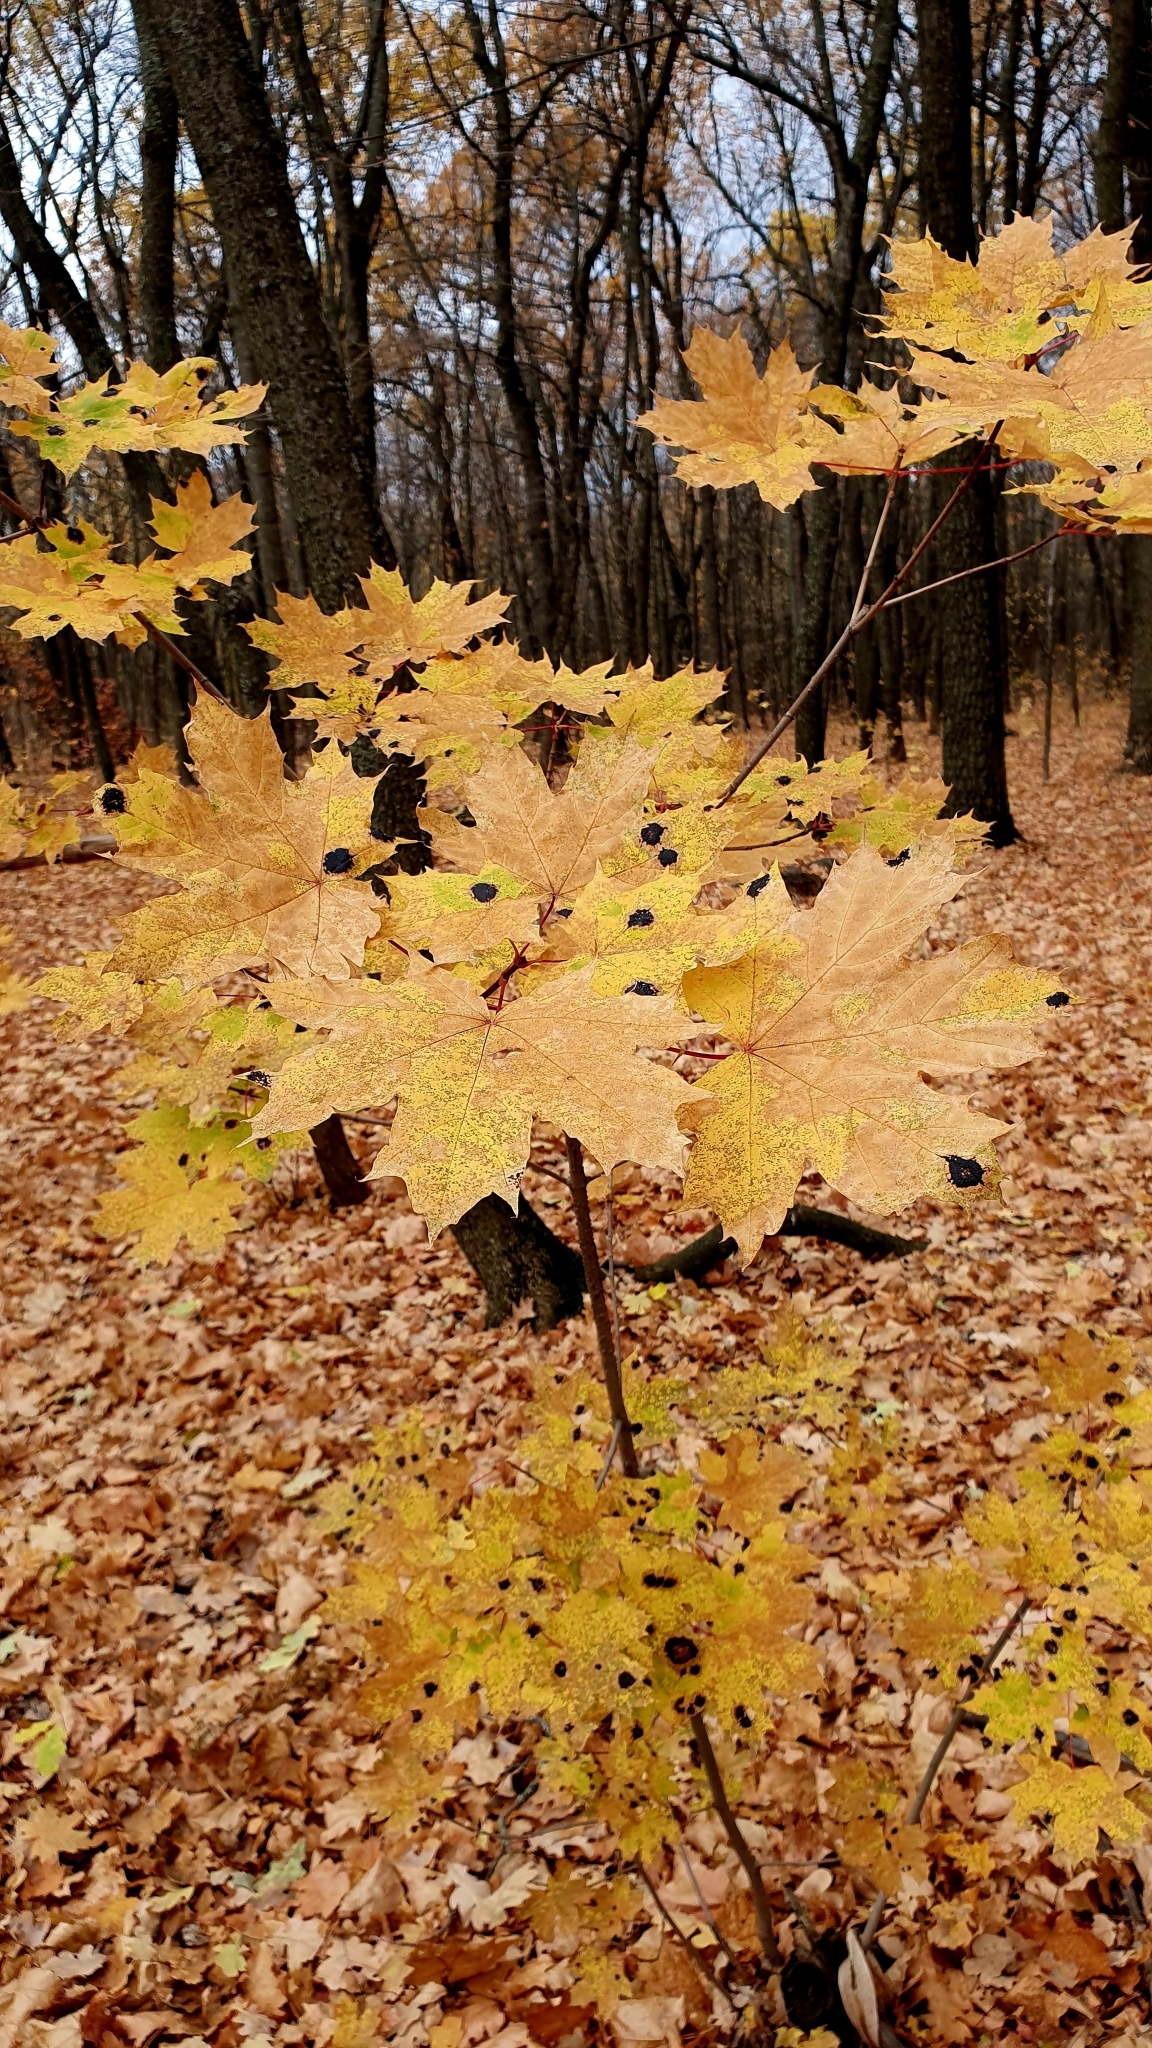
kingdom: Plantae
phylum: Tracheophyta
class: Magnoliopsida
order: Sapindales
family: Sapindaceae
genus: Acer
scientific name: Acer platanoides
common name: Norway maple
